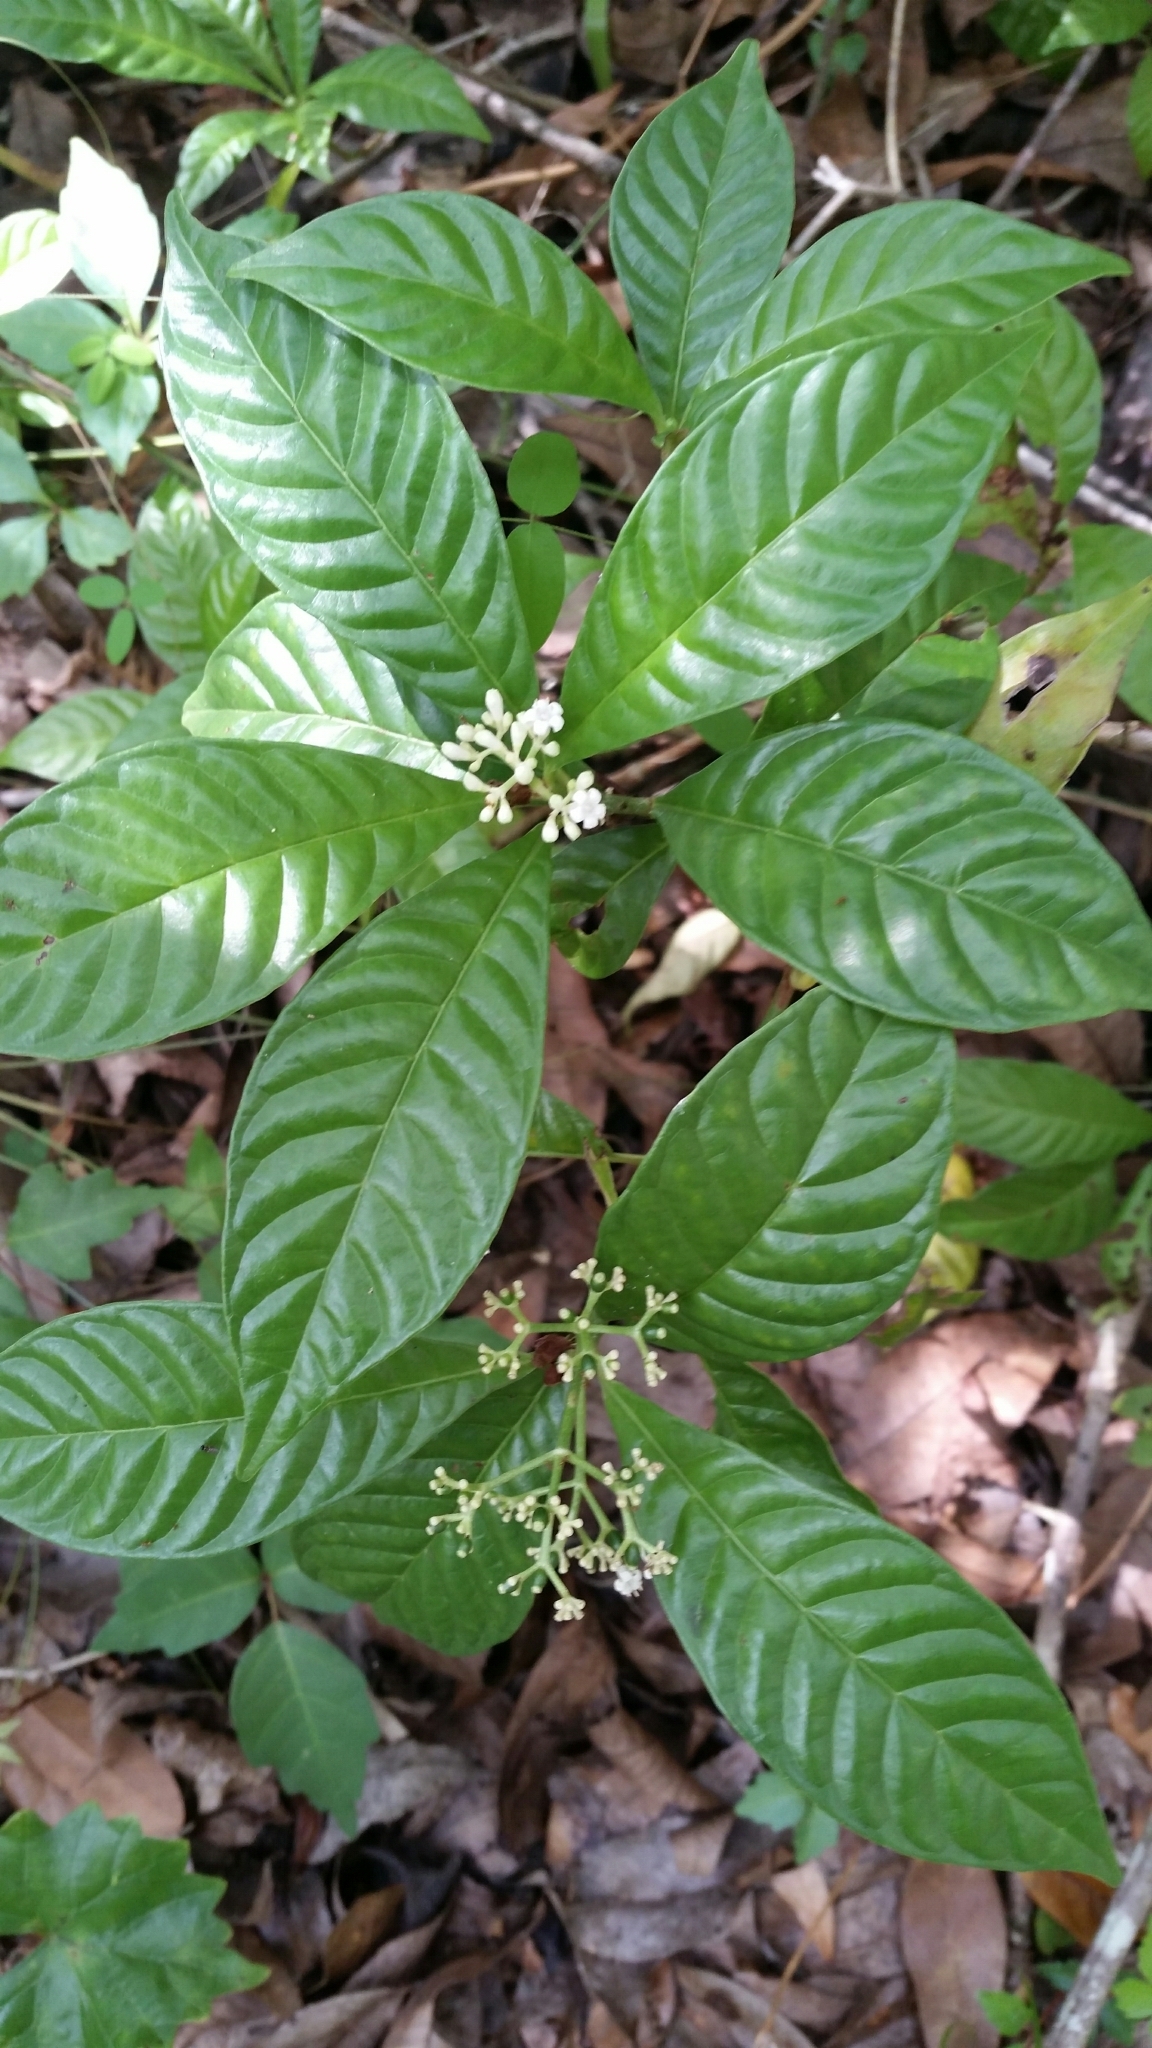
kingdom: Plantae
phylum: Tracheophyta
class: Magnoliopsida
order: Gentianales
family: Rubiaceae
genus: Psychotria
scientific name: Psychotria nervosa
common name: Bastard cankerberry
